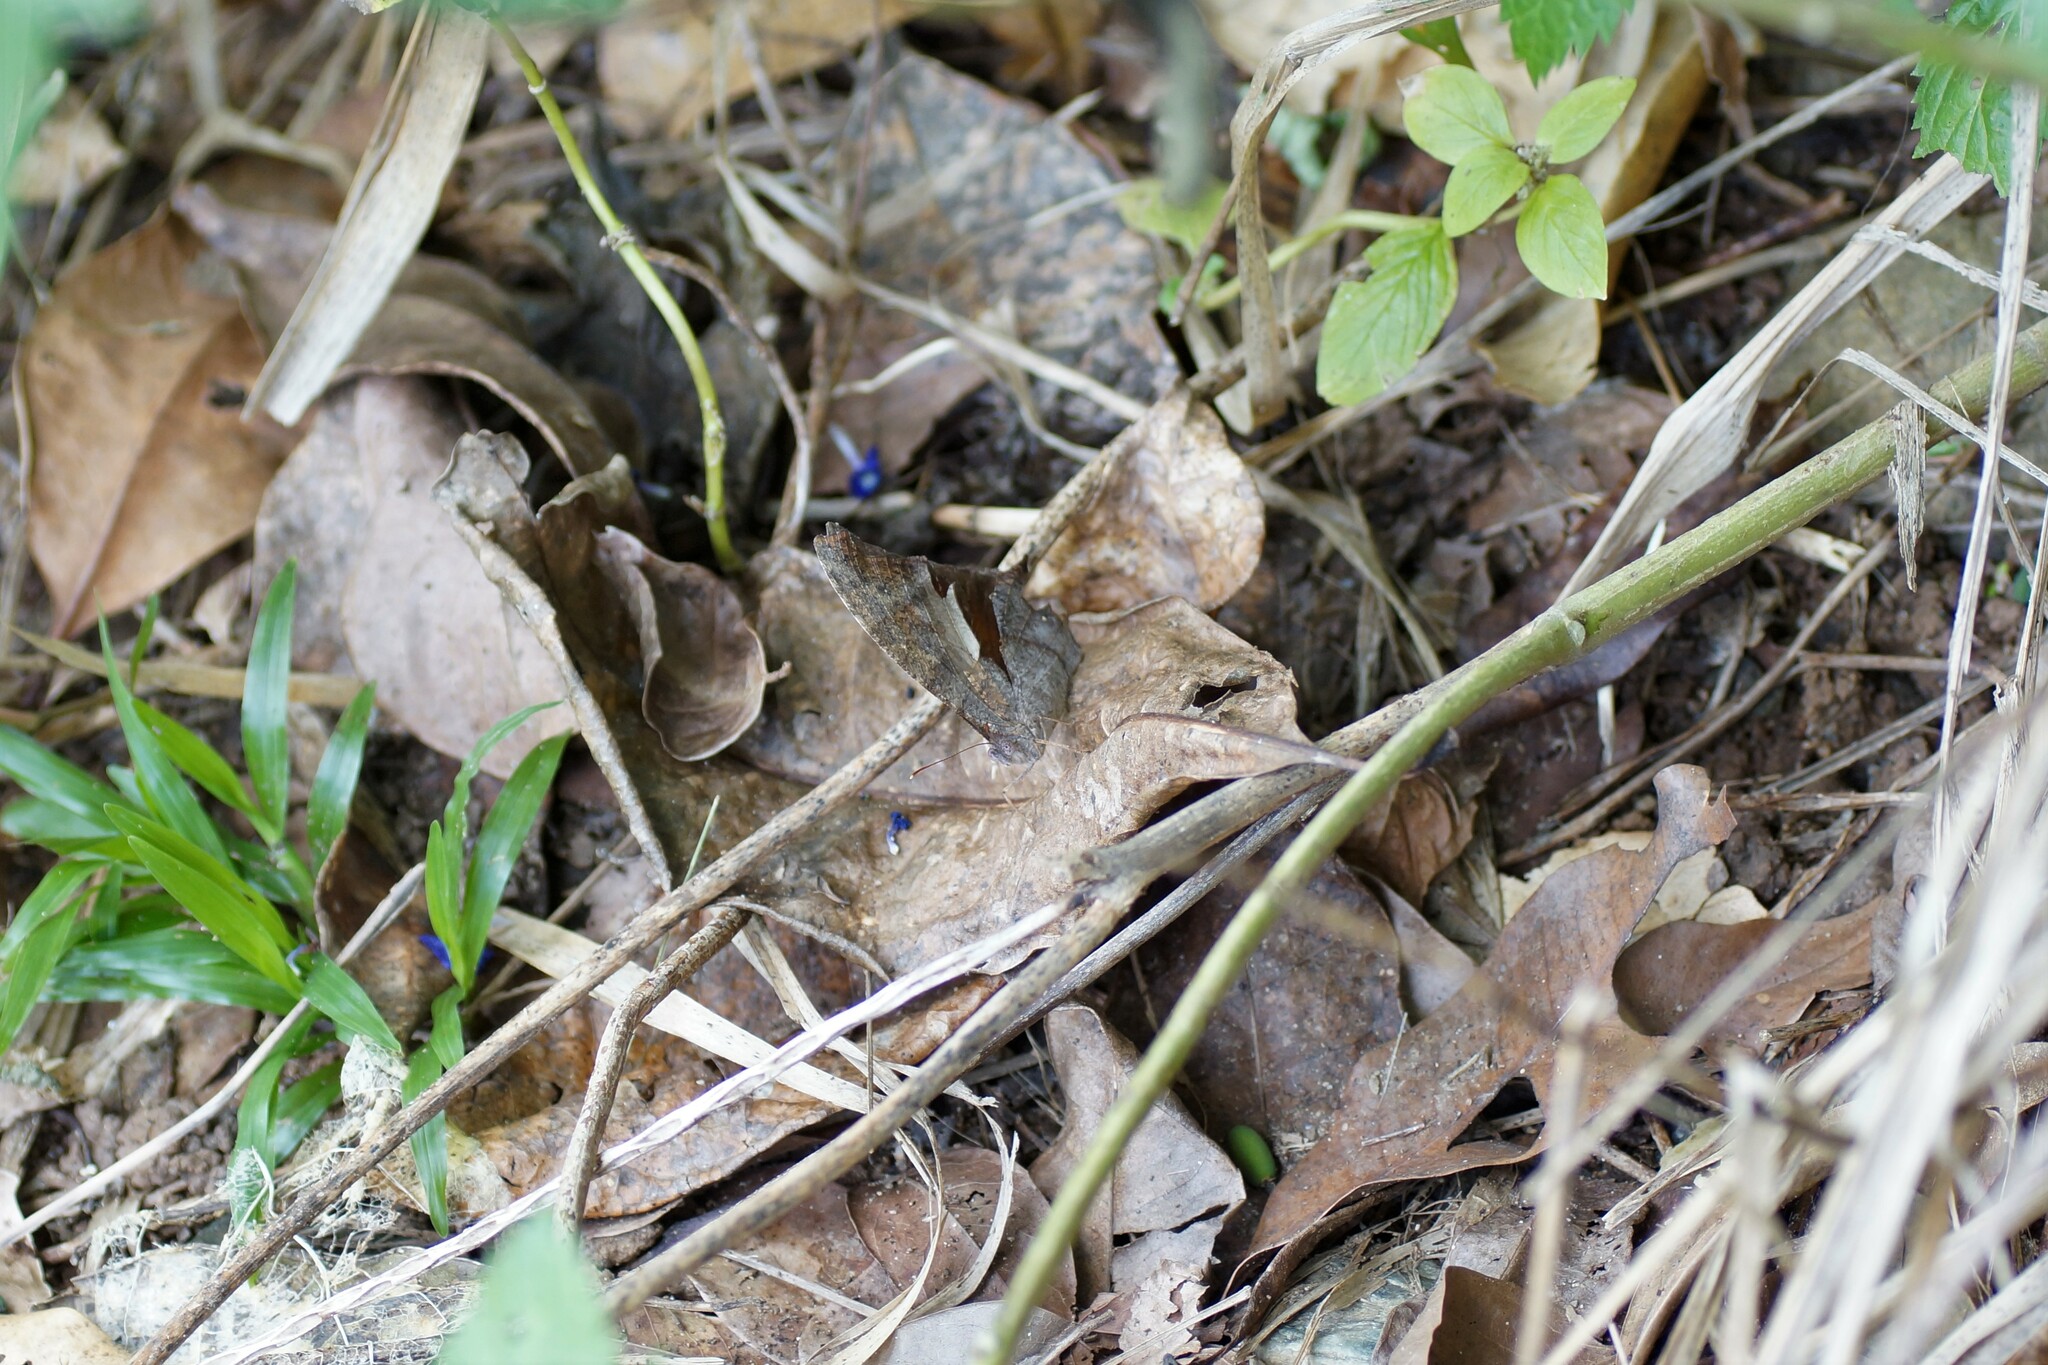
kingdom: Animalia
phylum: Arthropoda
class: Insecta
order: Lepidoptera
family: Nymphalidae
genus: Melanitis
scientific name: Melanitis leda
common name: Twilight brown
